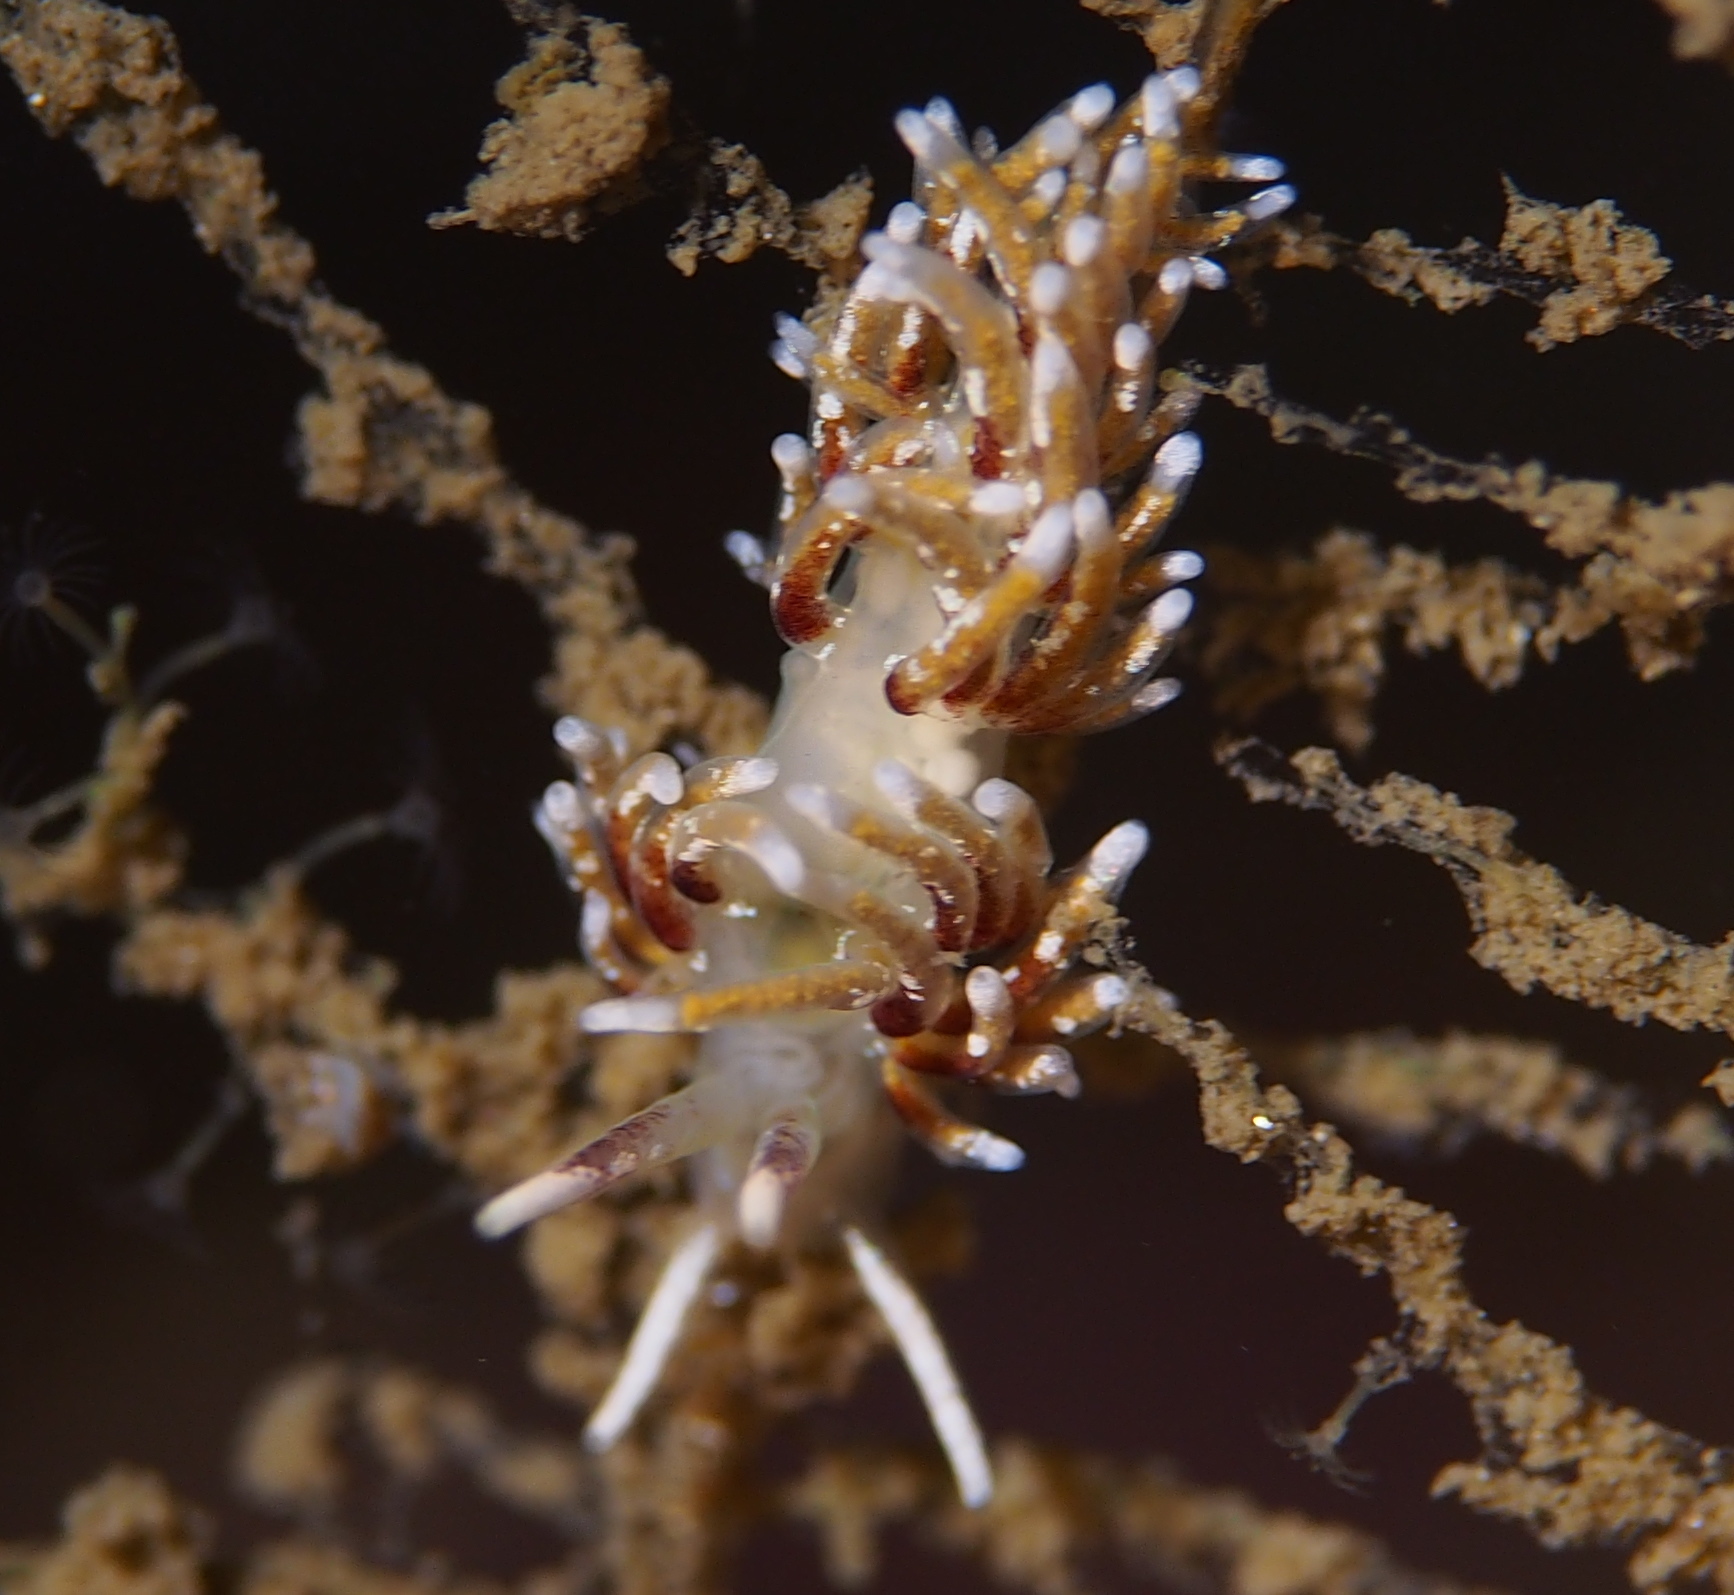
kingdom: Animalia
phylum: Mollusca
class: Gastropoda
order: Nudibranchia
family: Trinchesiidae
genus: Rubramoena
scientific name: Rubramoena rubescens
